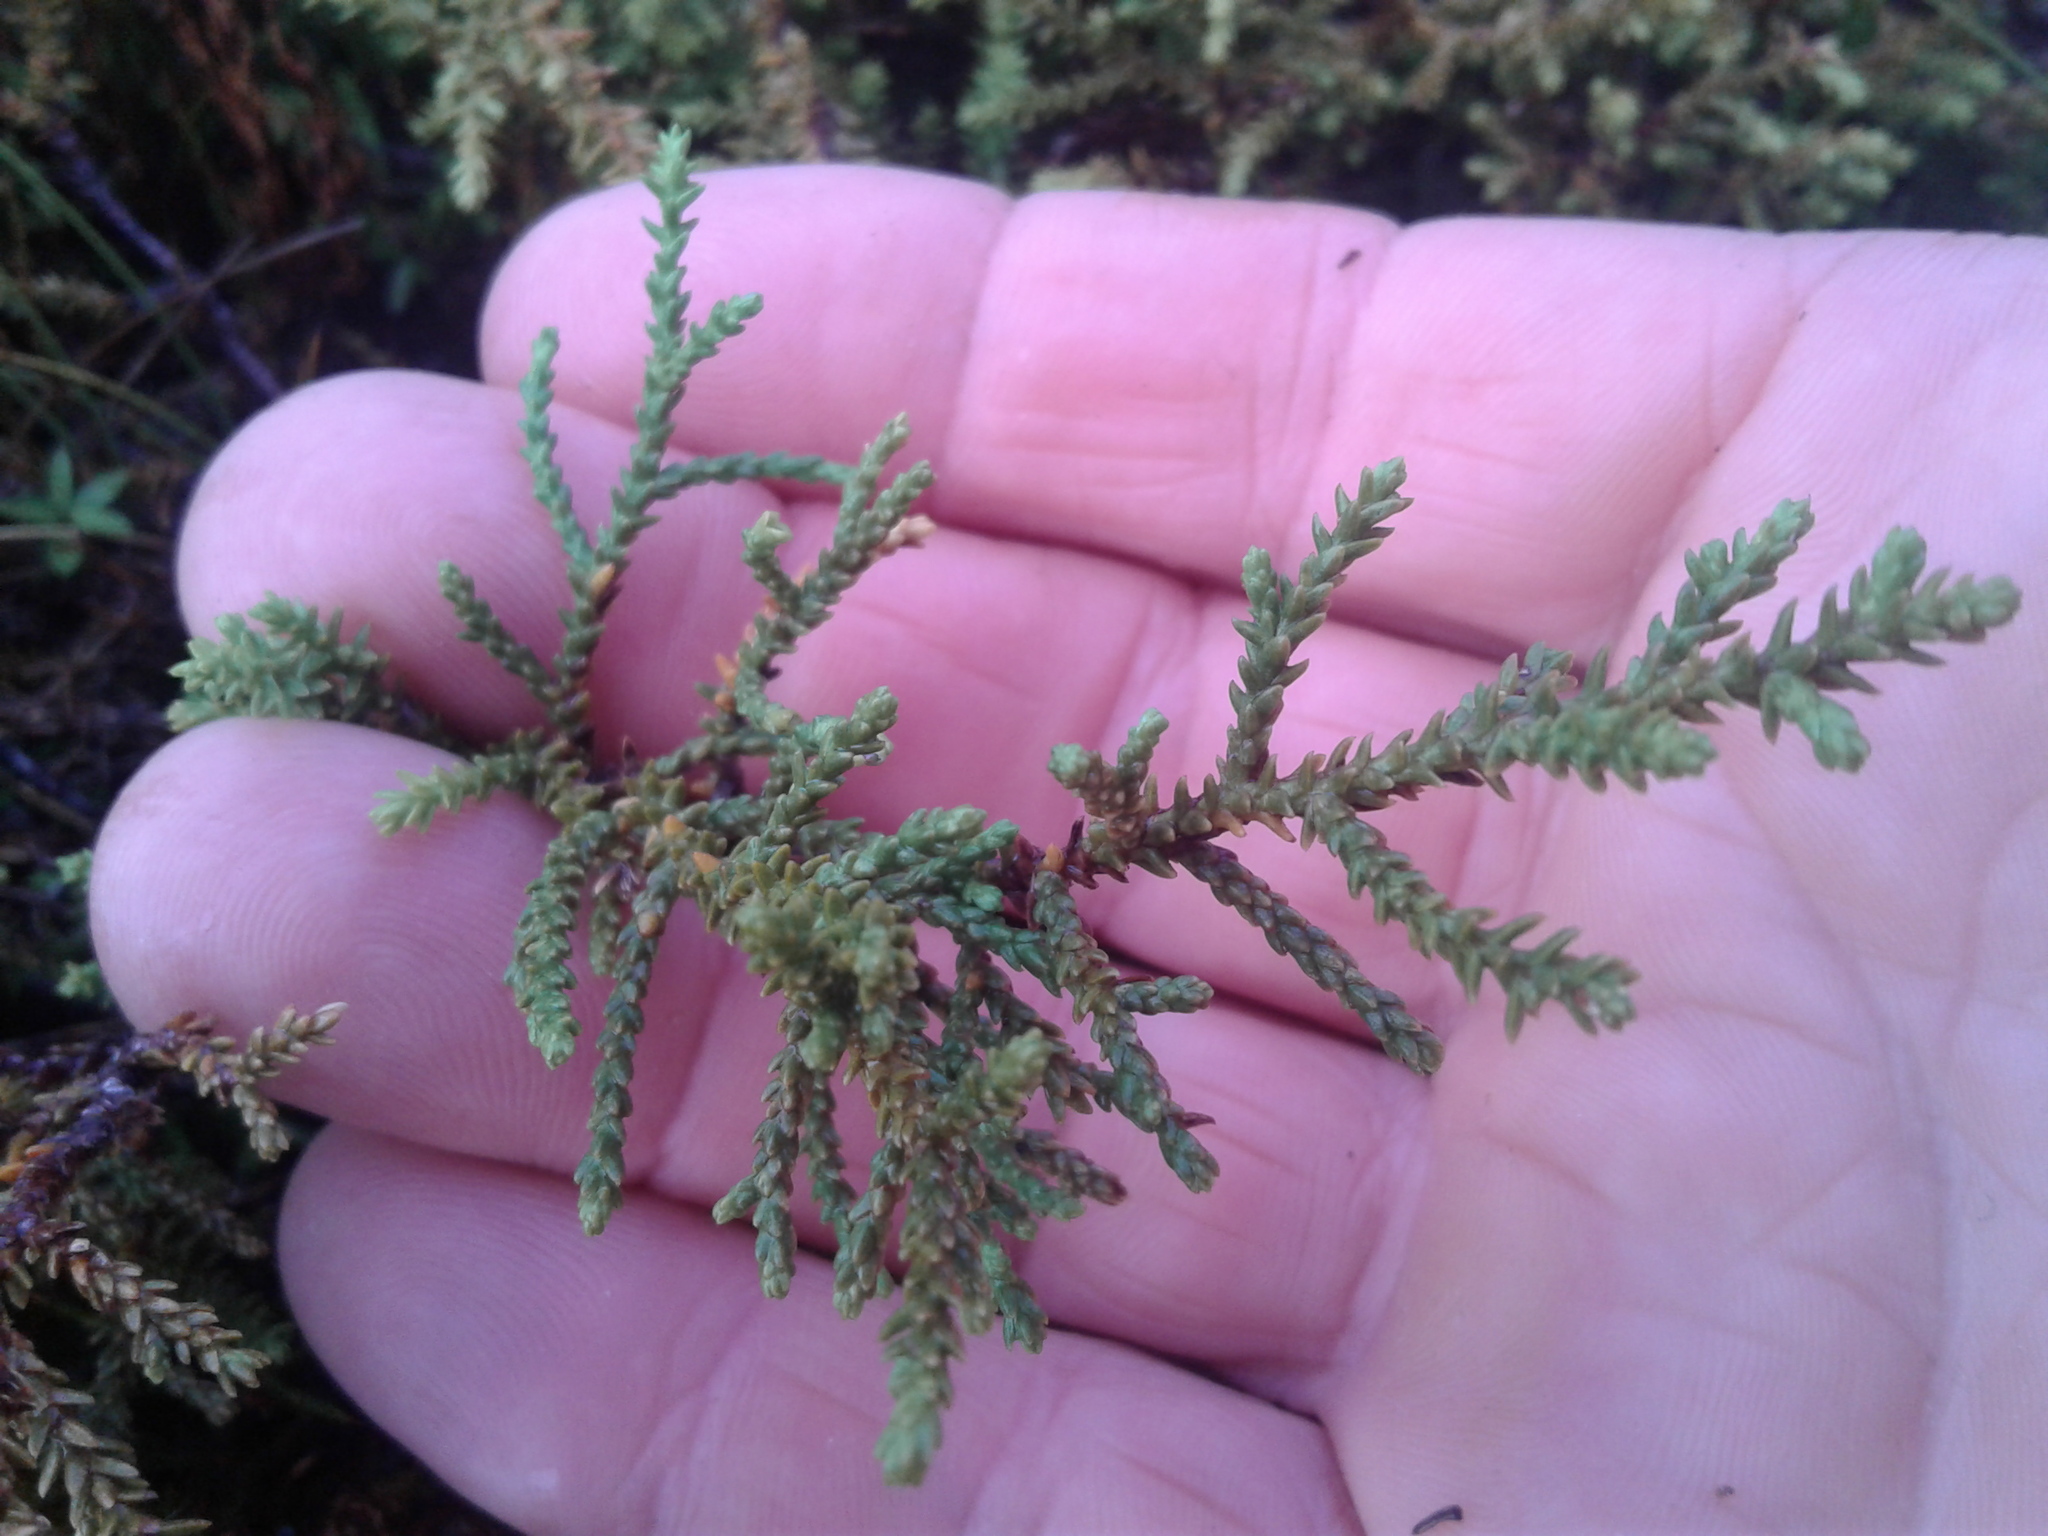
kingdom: Plantae
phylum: Tracheophyta
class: Pinopsida
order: Pinales
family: Podocarpaceae
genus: Lepidothamnus
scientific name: Lepidothamnus laxifolius
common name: Pygmy pine
